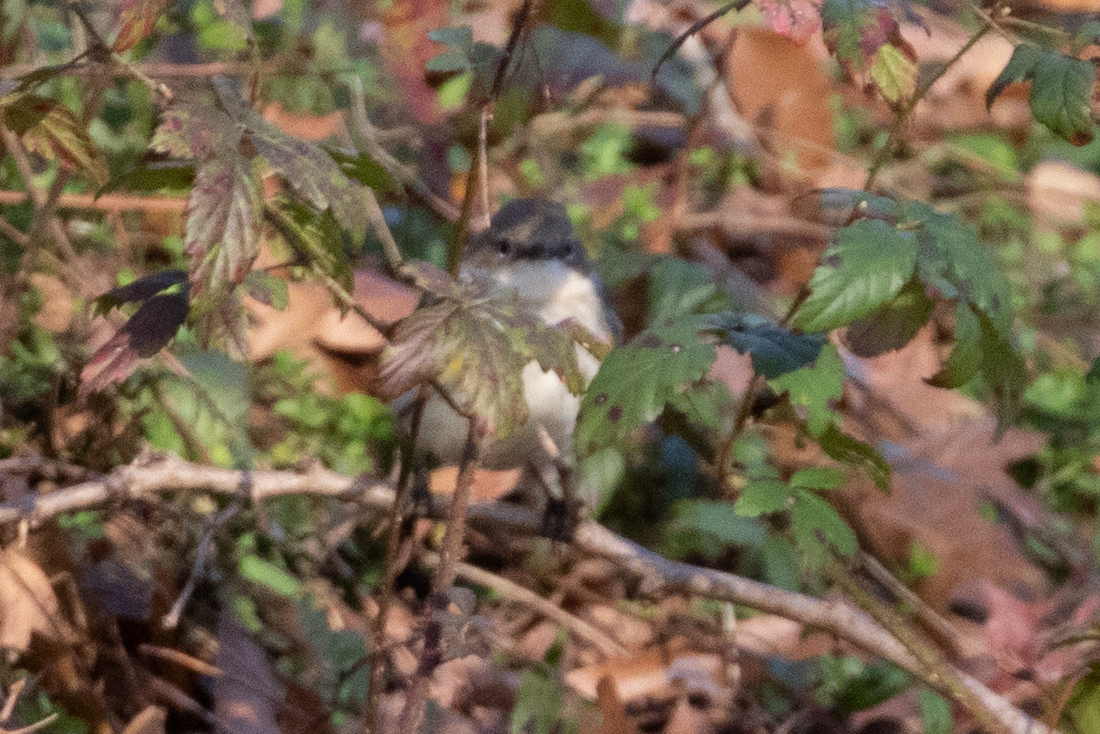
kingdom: Animalia
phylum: Chordata
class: Aves
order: Passeriformes
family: Parulidae
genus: Setophaga
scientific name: Setophaga coronata
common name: Myrtle warbler
